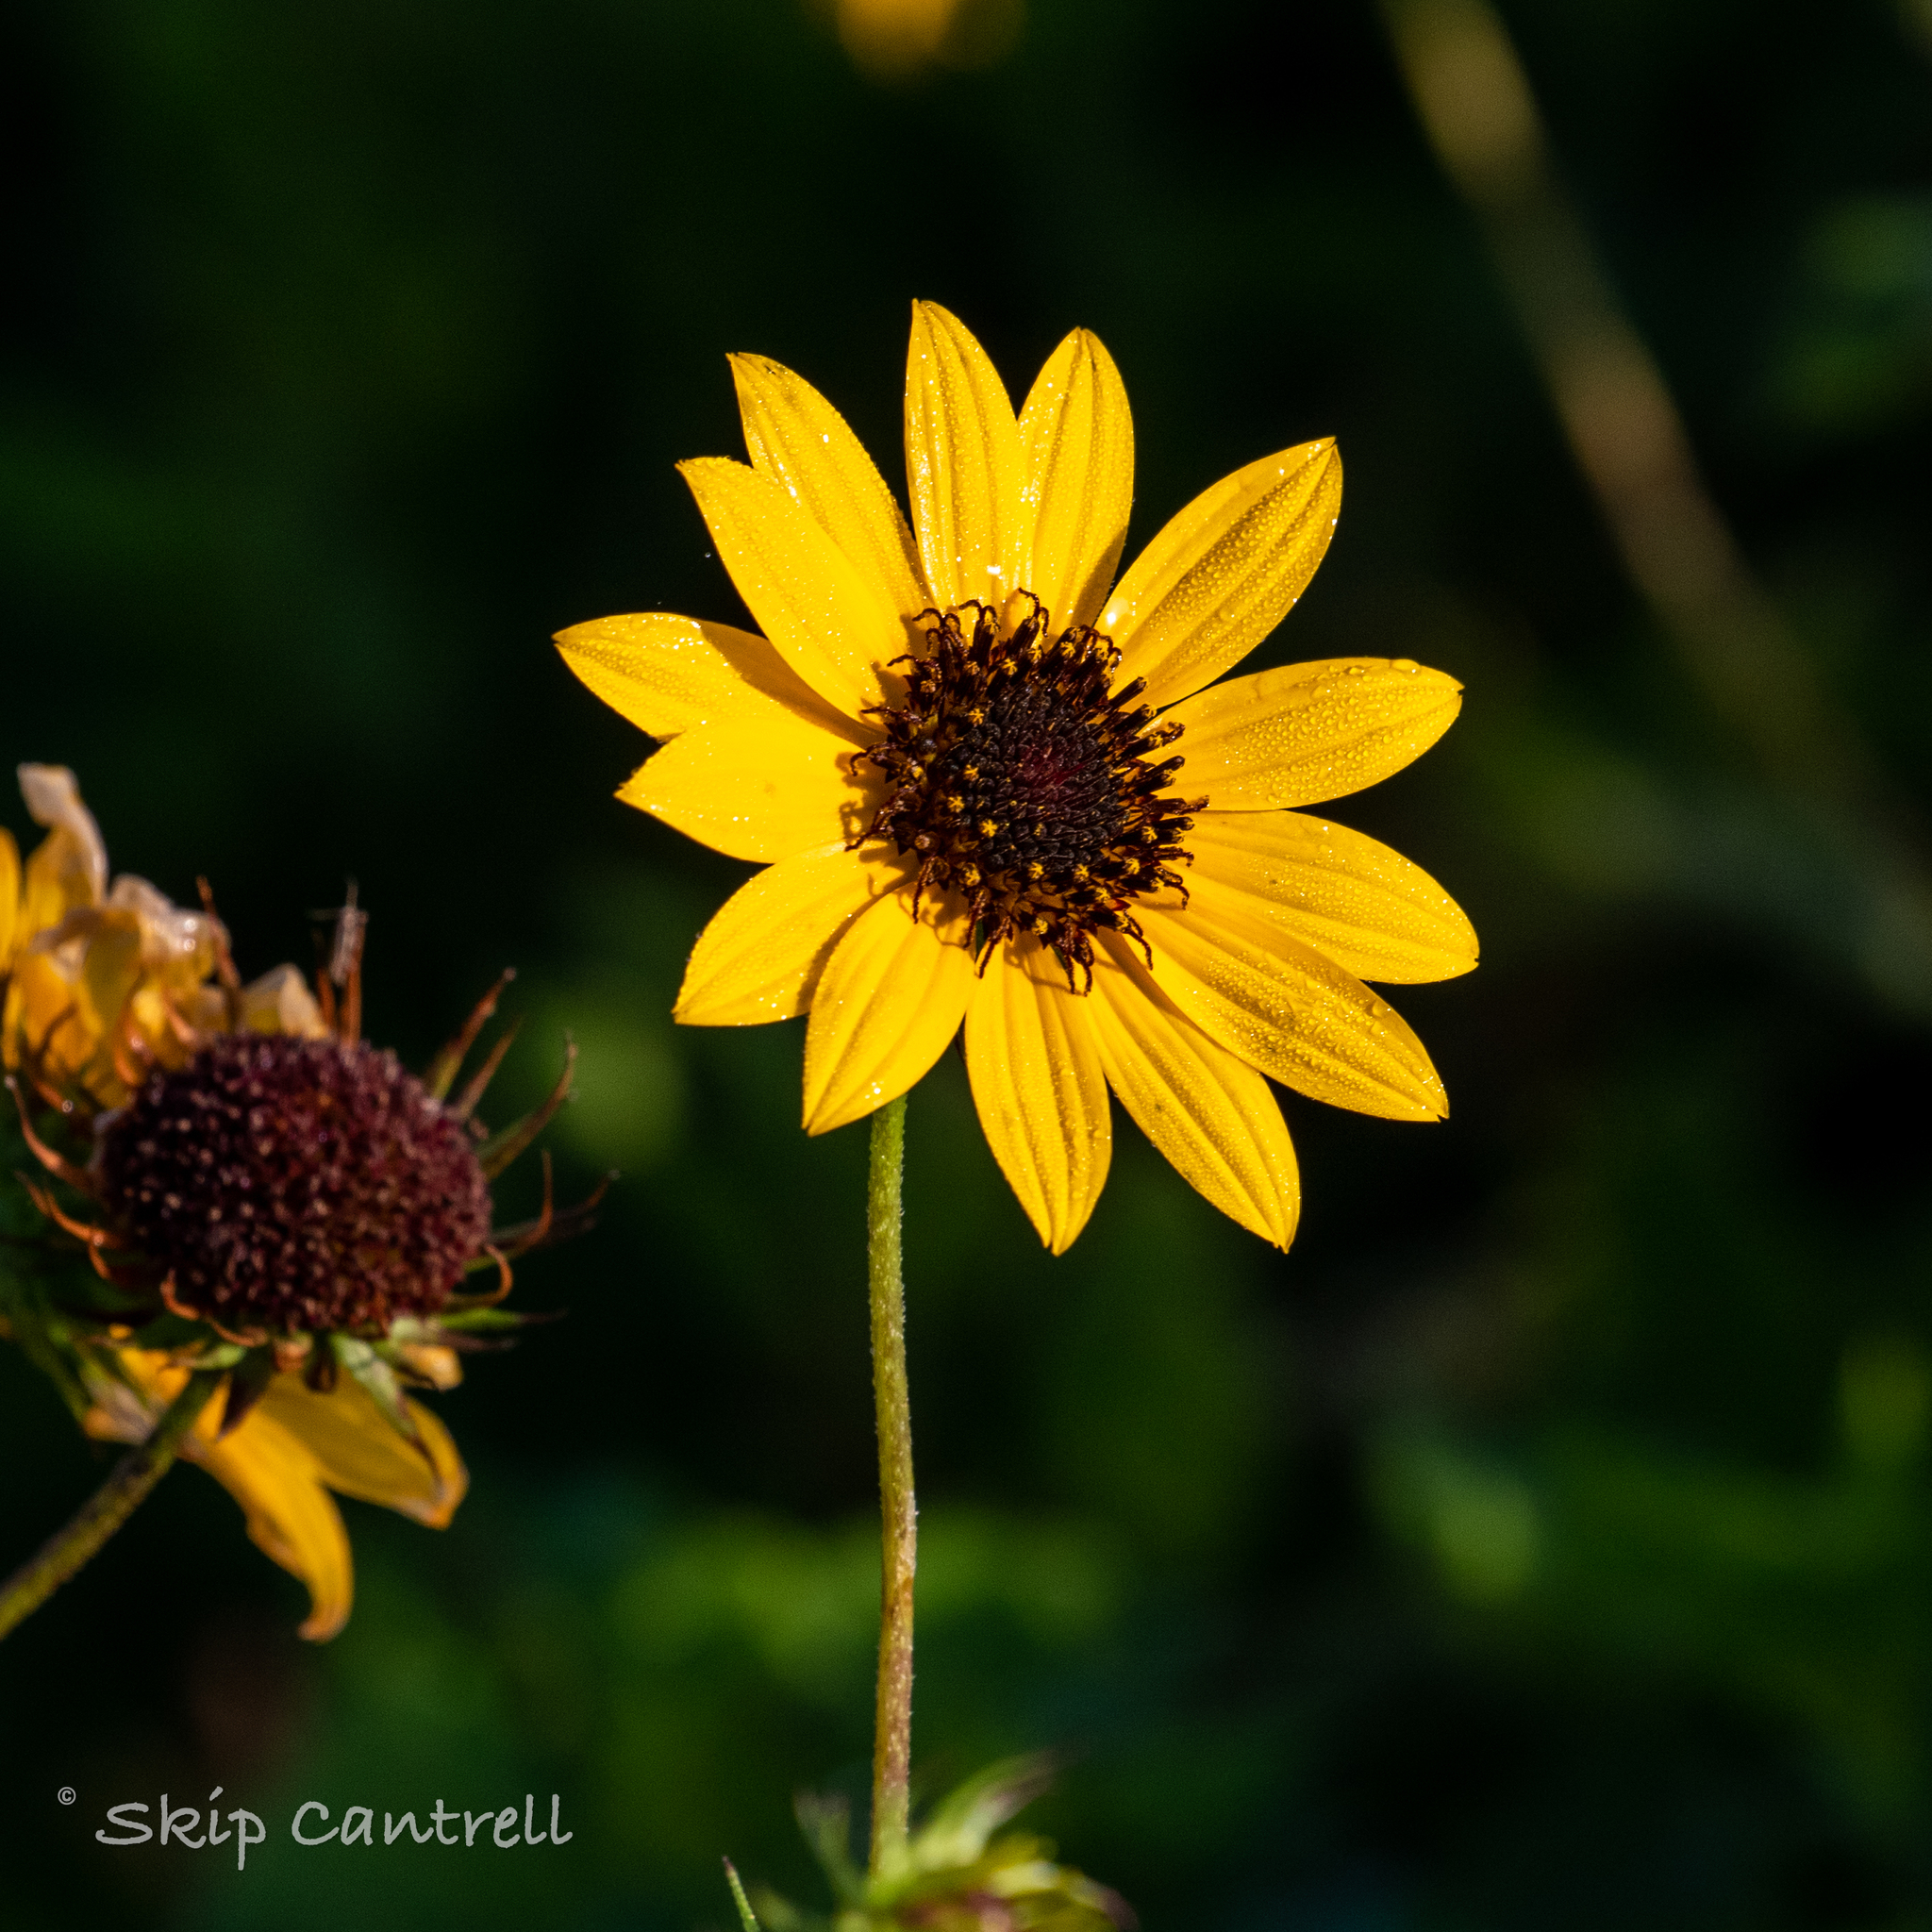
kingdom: Plantae
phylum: Tracheophyta
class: Magnoliopsida
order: Asterales
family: Asteraceae
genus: Helianthus
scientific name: Helianthus debilis
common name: Weak sunflower
